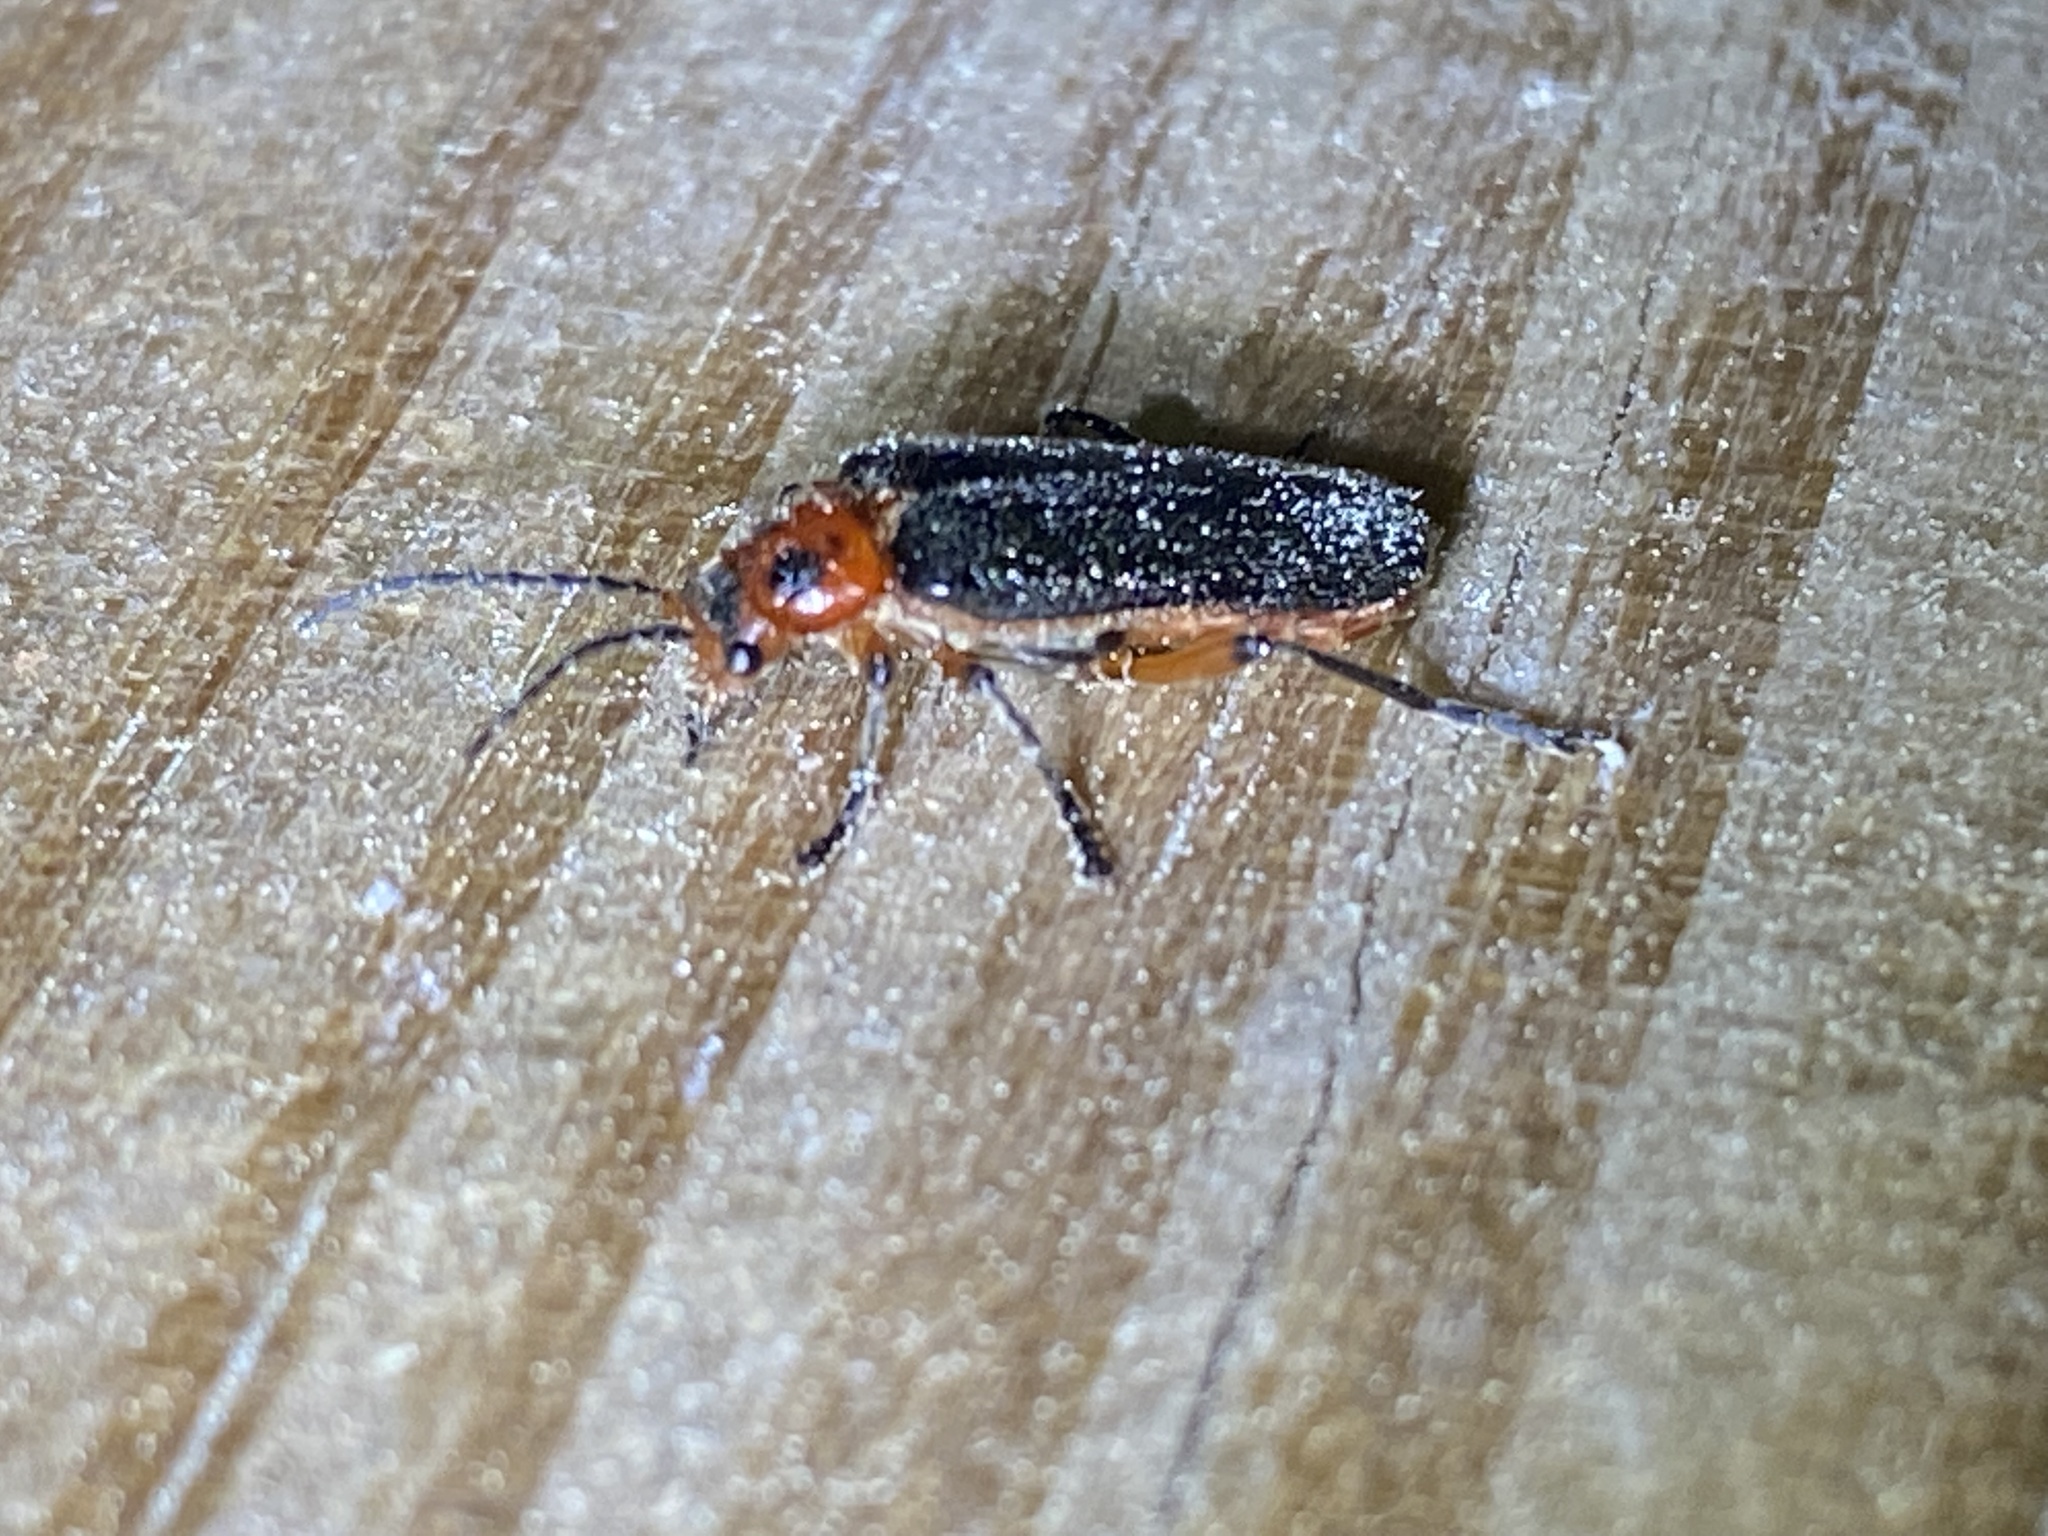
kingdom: Animalia
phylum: Arthropoda
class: Insecta
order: Coleoptera
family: Cantharidae
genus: Atalantycha
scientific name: Atalantycha bilineata
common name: Two-lined leatherwing
